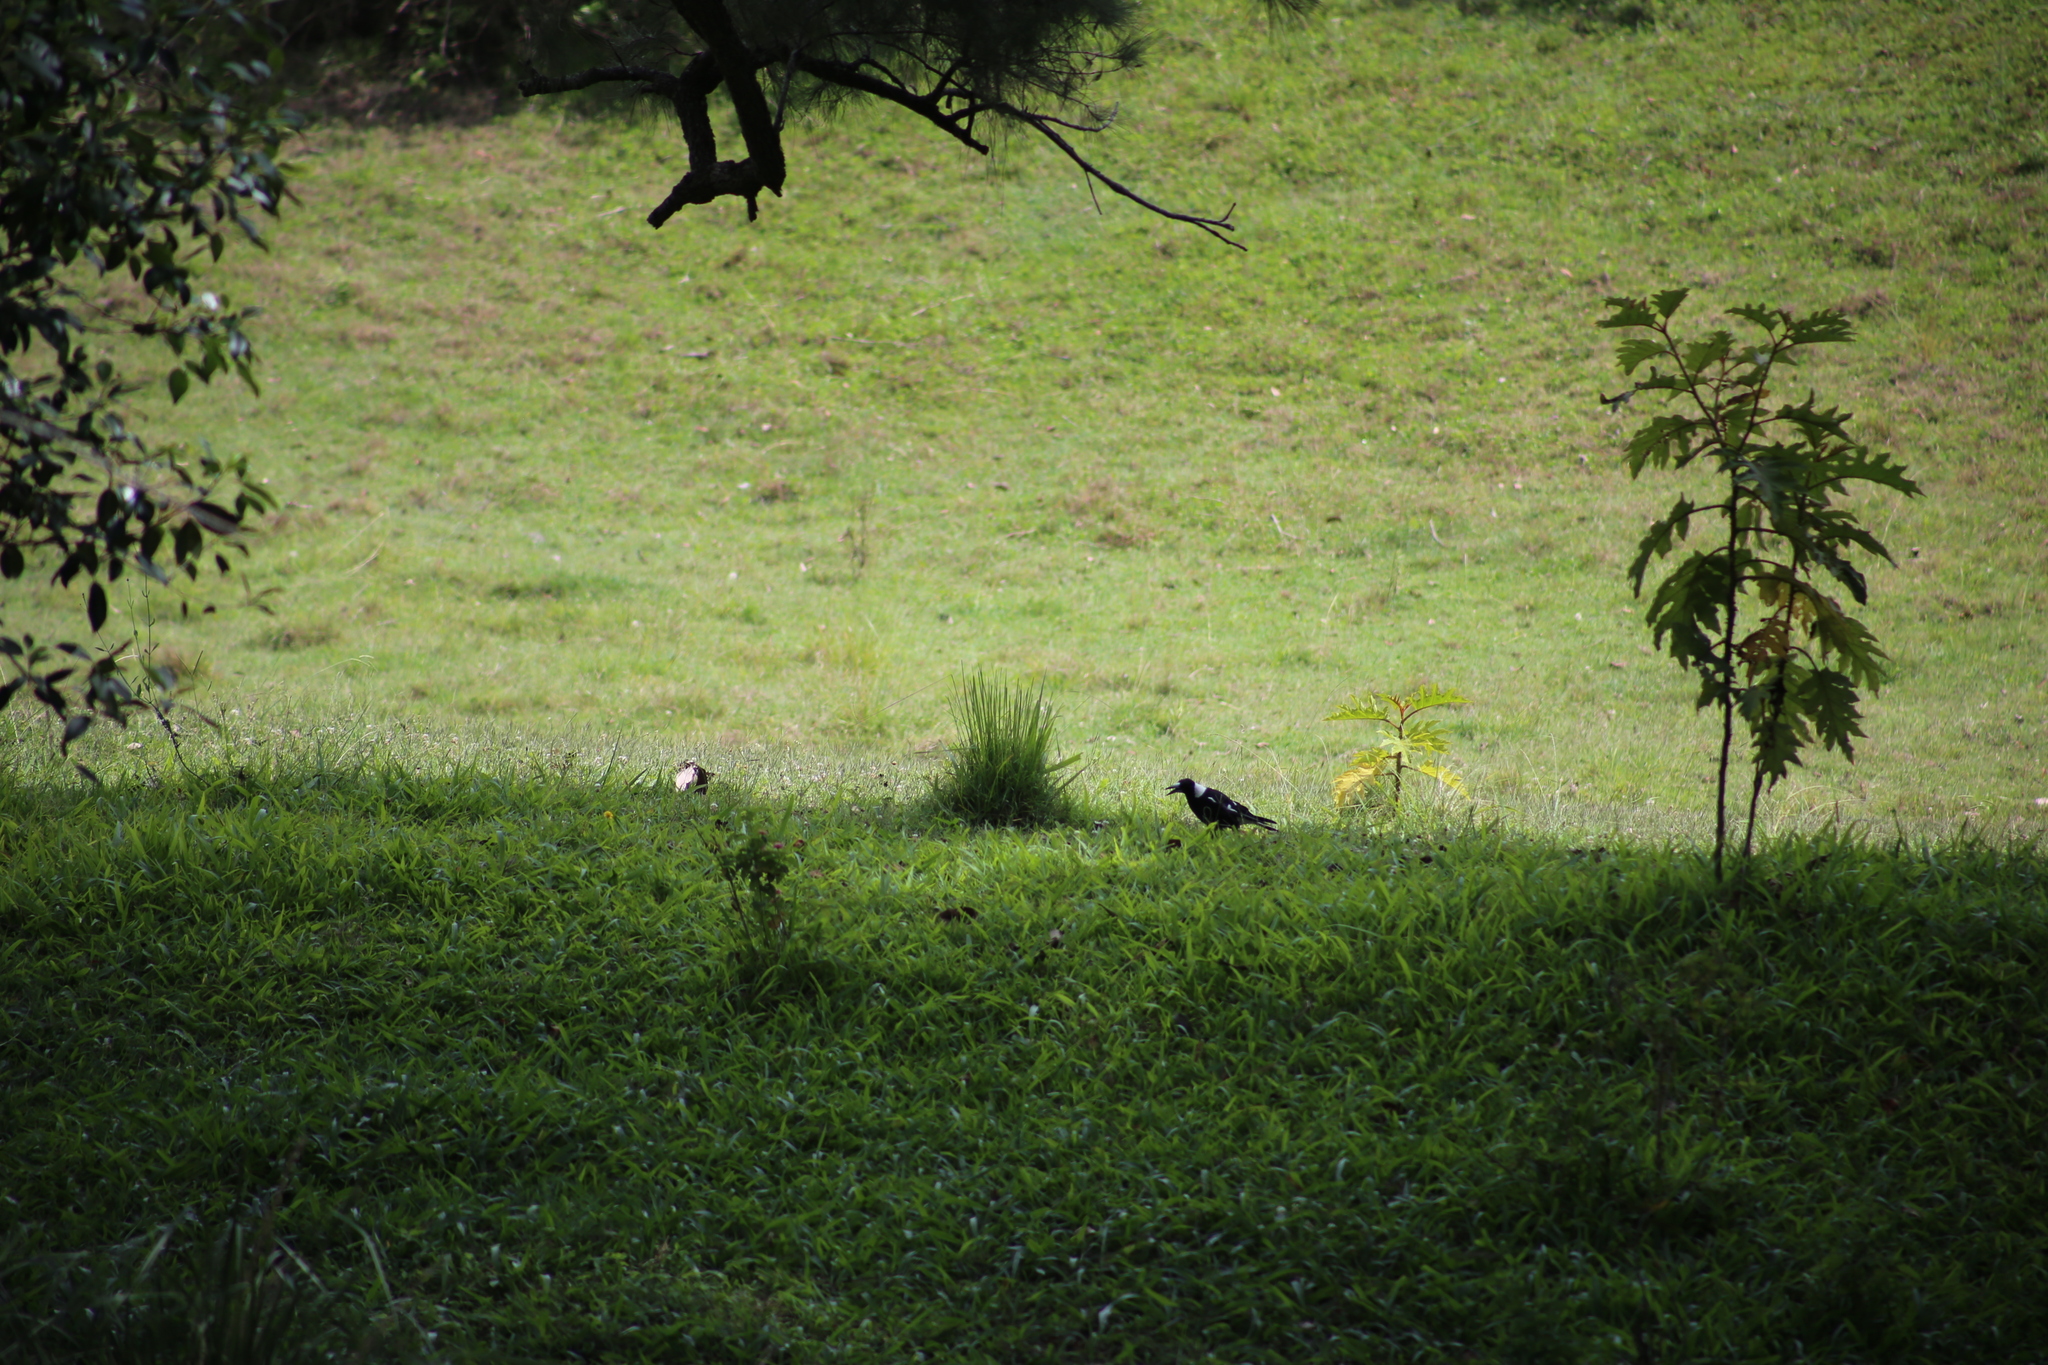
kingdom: Animalia
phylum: Chordata
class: Aves
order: Passeriformes
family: Cracticidae
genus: Gymnorhina
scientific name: Gymnorhina tibicen
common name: Australian magpie
